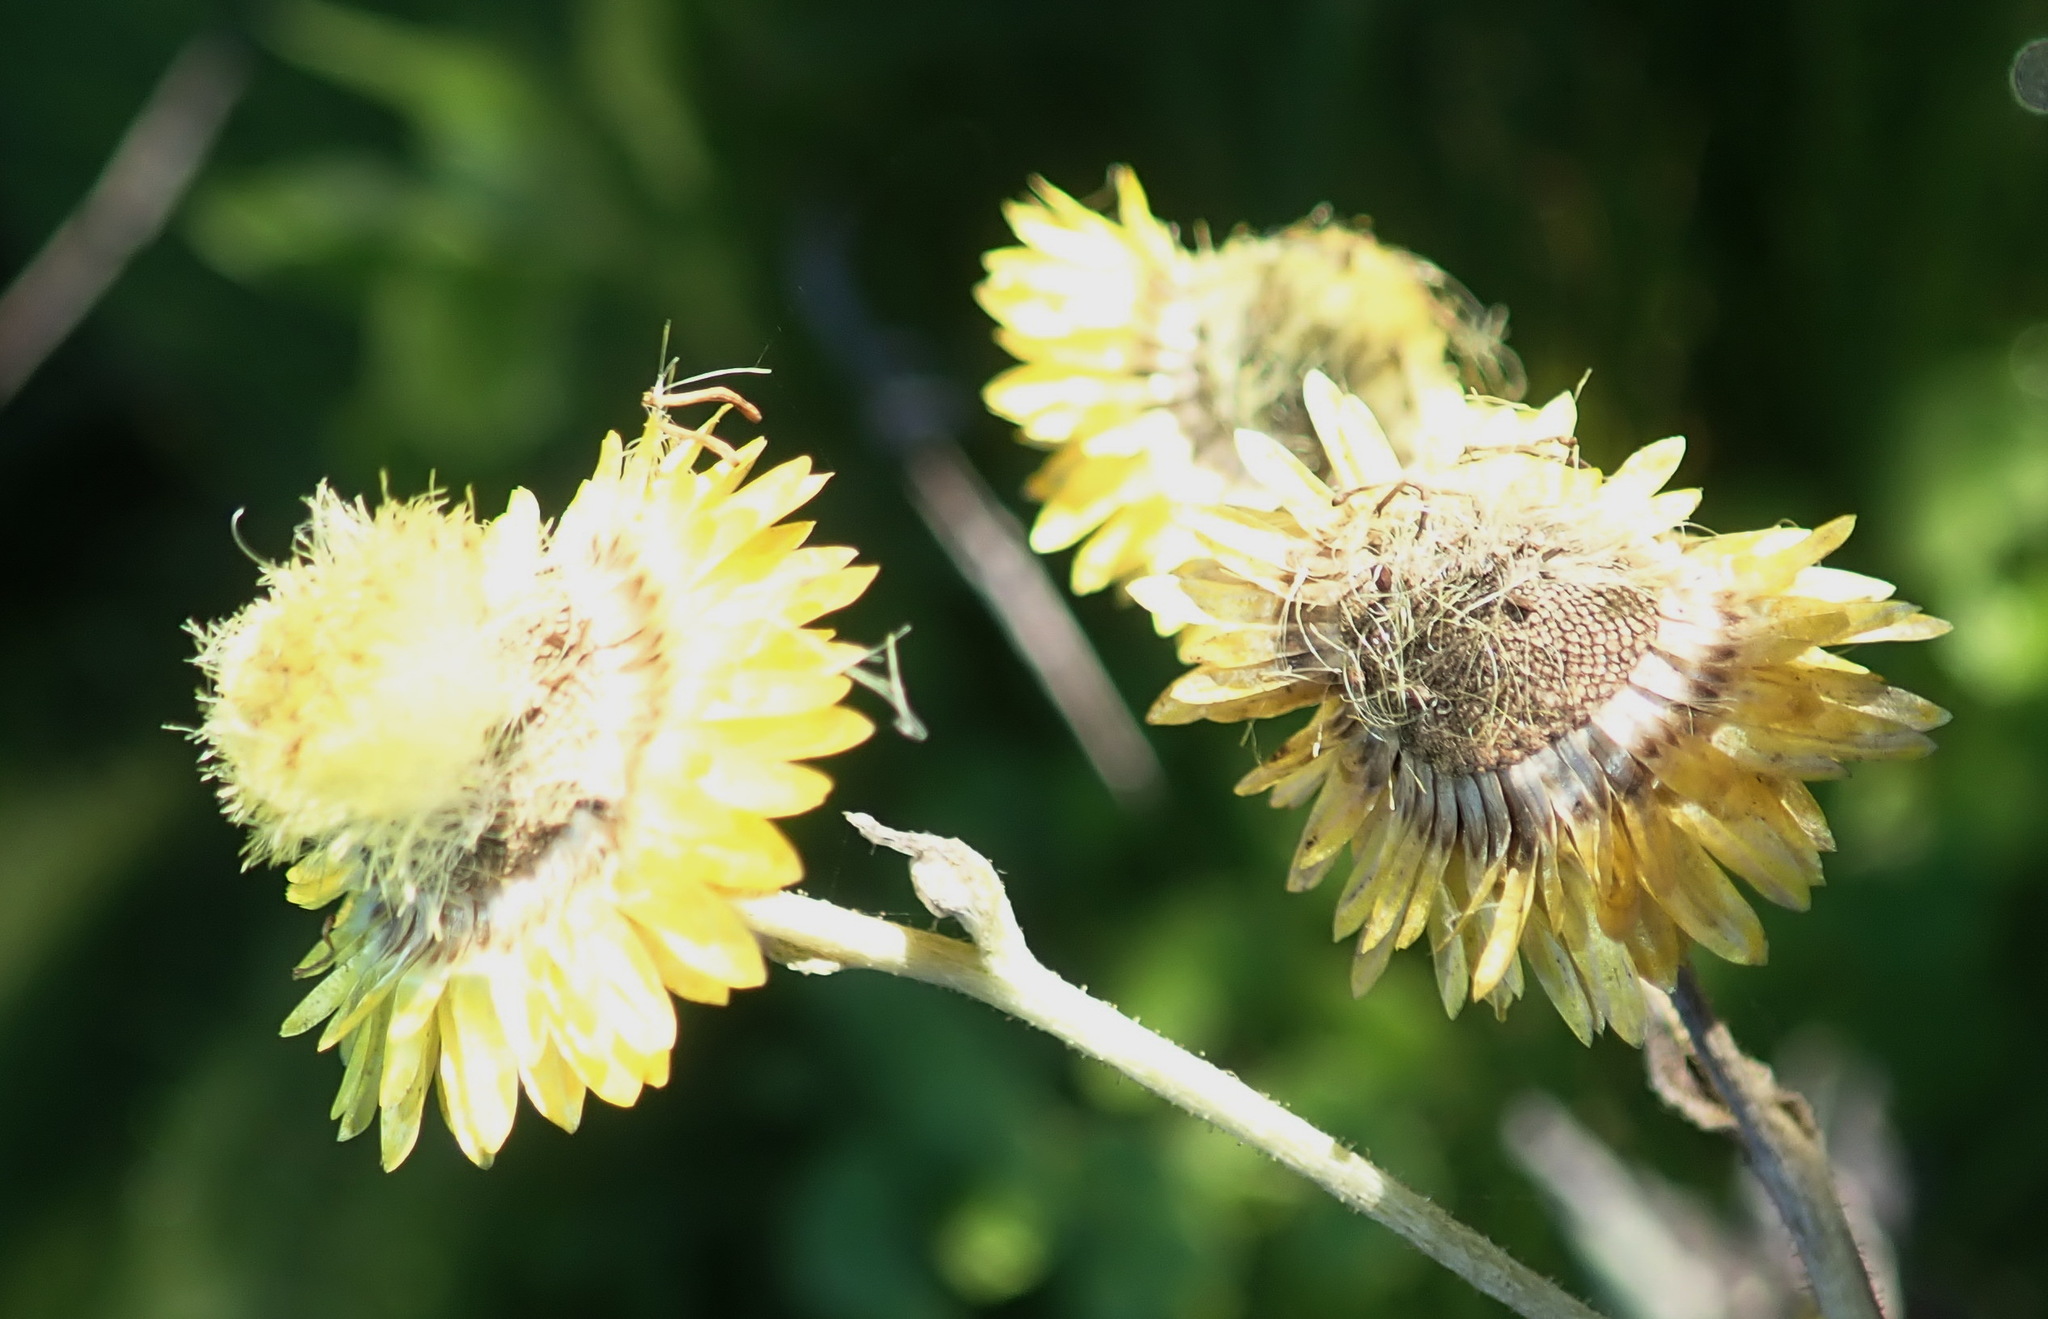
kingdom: Plantae
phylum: Tracheophyta
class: Magnoliopsida
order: Asterales
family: Asteraceae
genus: Helichrysum
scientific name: Helichrysum foetidum
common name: Stinking everlasting
